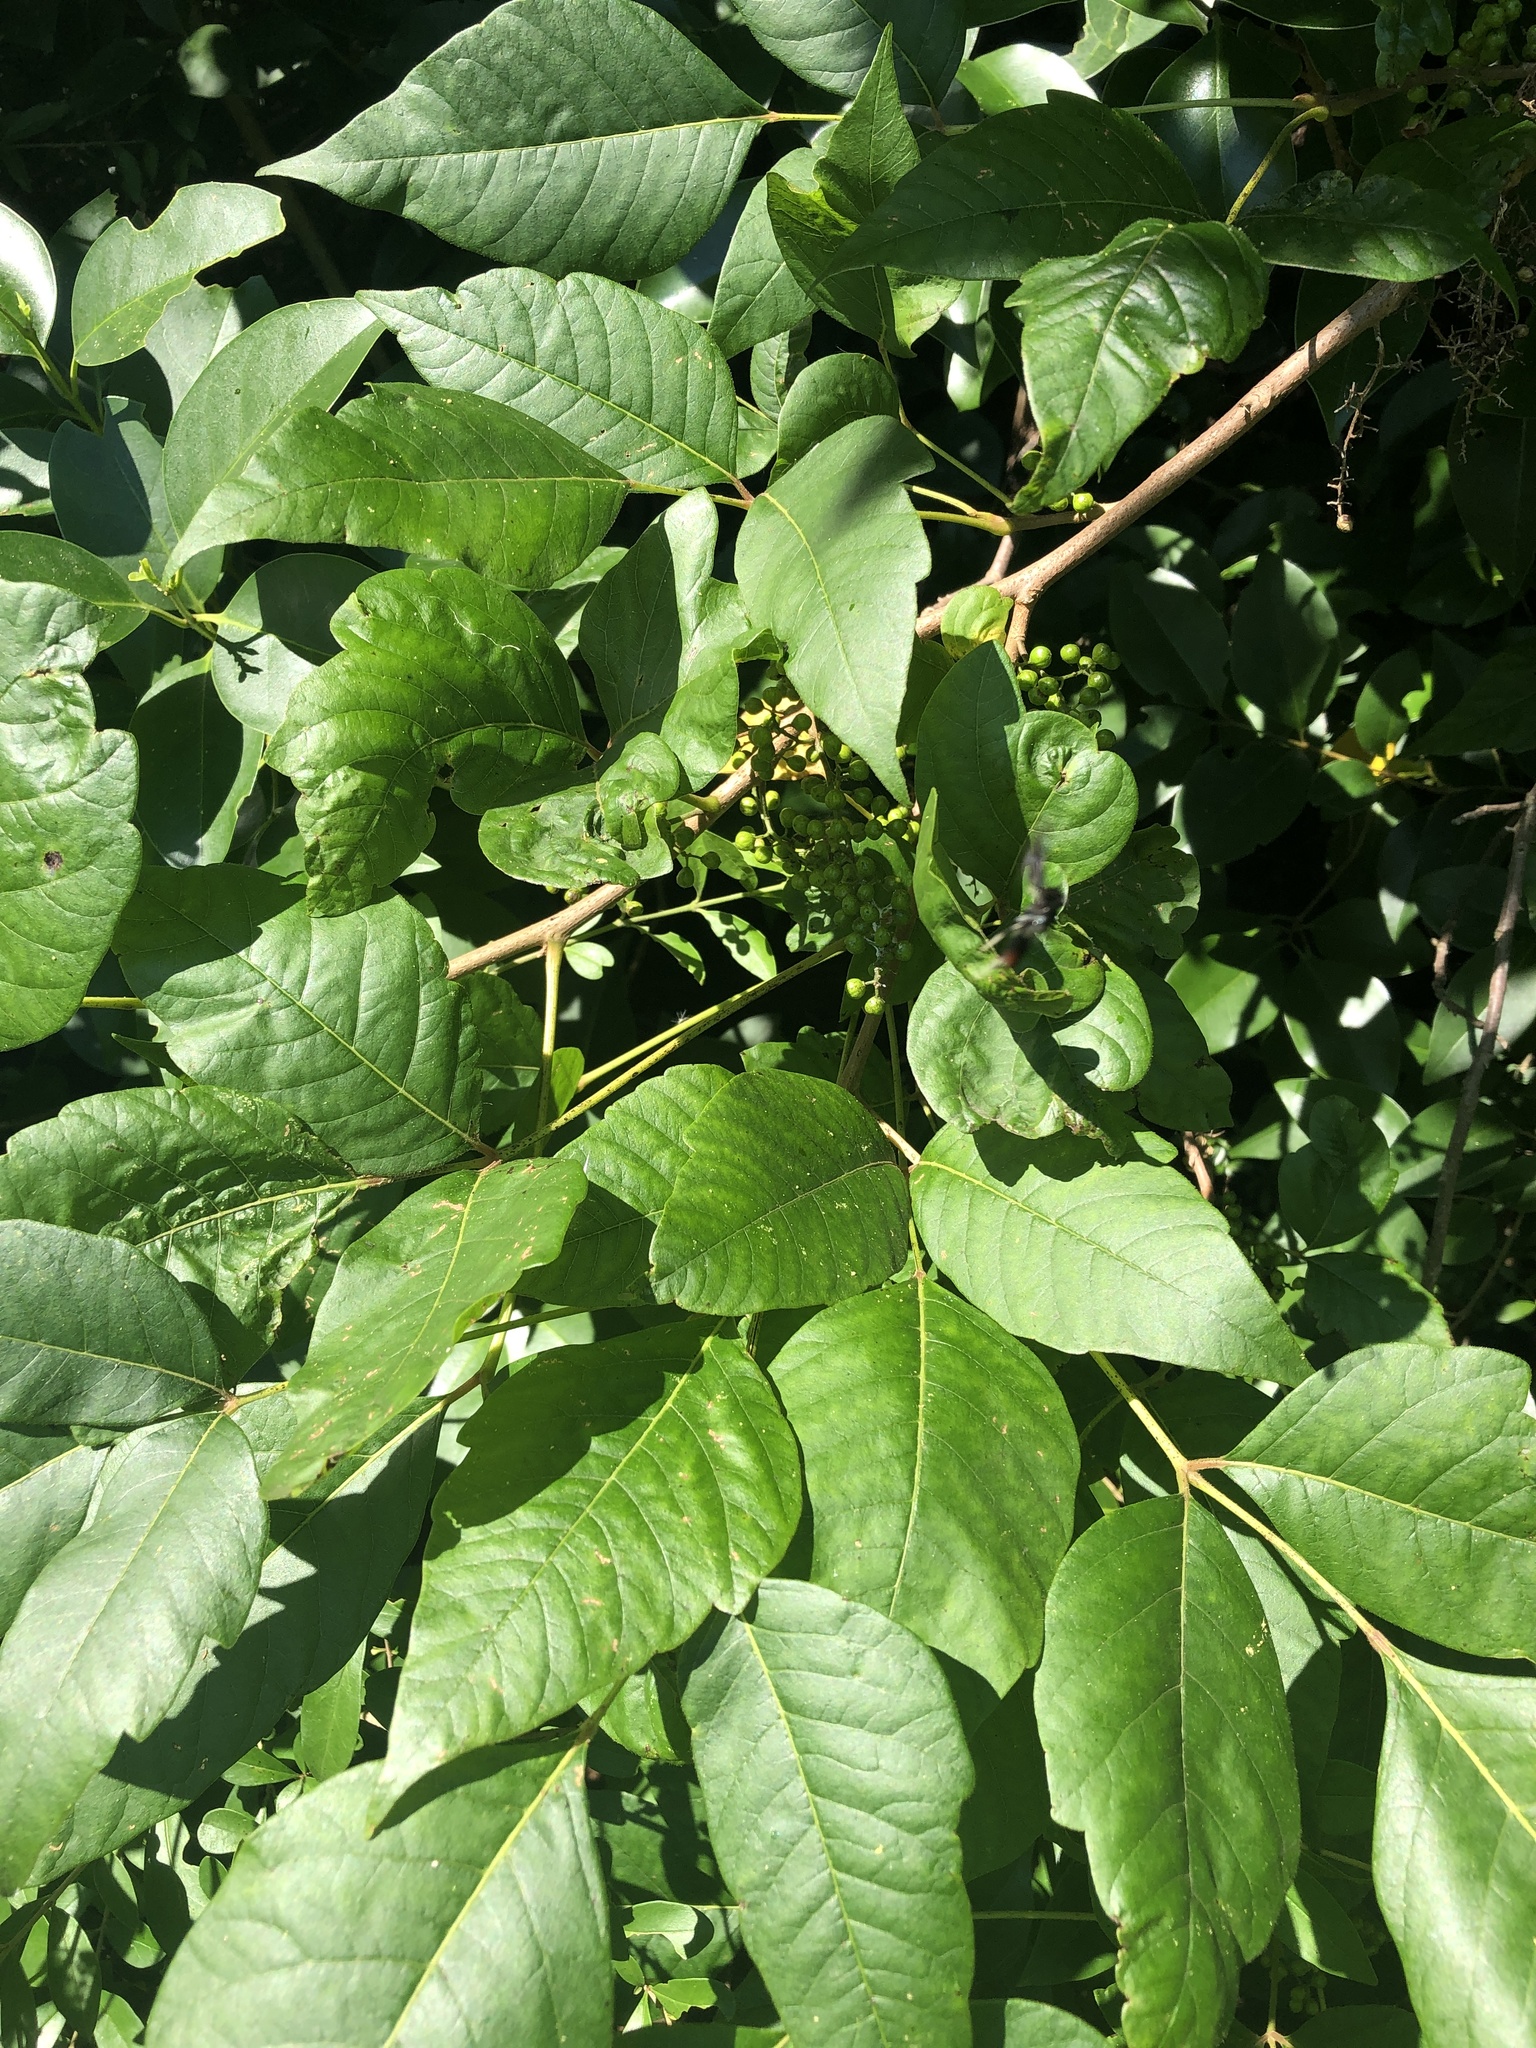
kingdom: Plantae
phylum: Tracheophyta
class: Magnoliopsida
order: Sapindales
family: Anacardiaceae
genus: Toxicodendron
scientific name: Toxicodendron radicans
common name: Poison ivy
